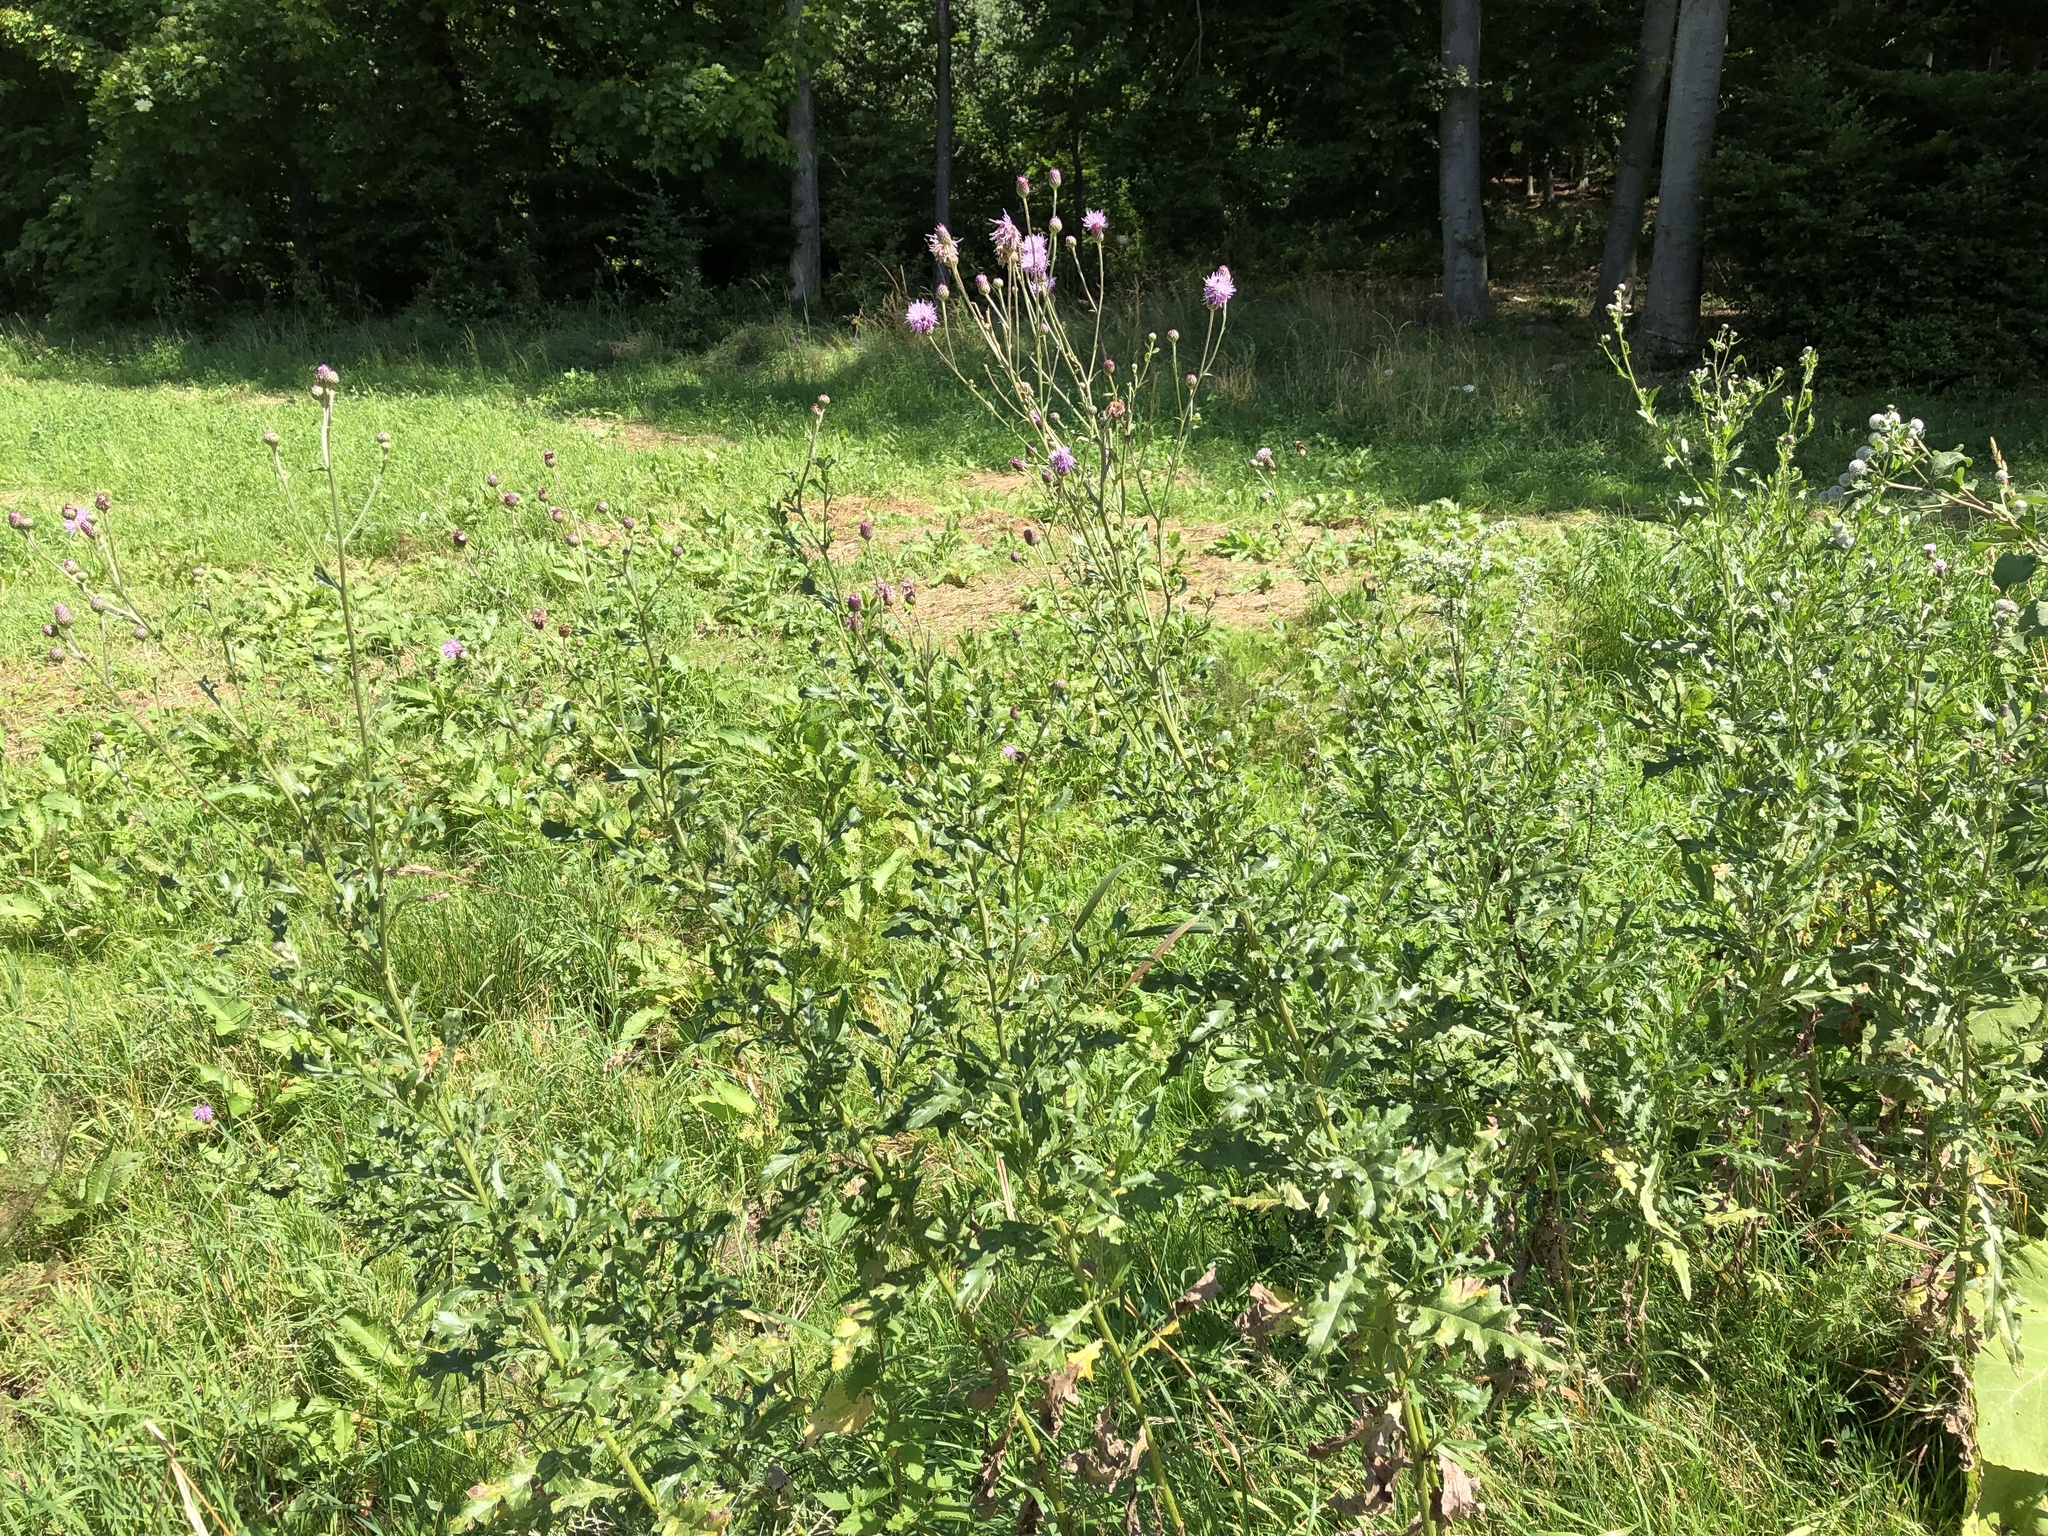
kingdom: Plantae
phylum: Tracheophyta
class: Magnoliopsida
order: Asterales
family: Asteraceae
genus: Cirsium
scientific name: Cirsium arvense
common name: Creeping thistle
